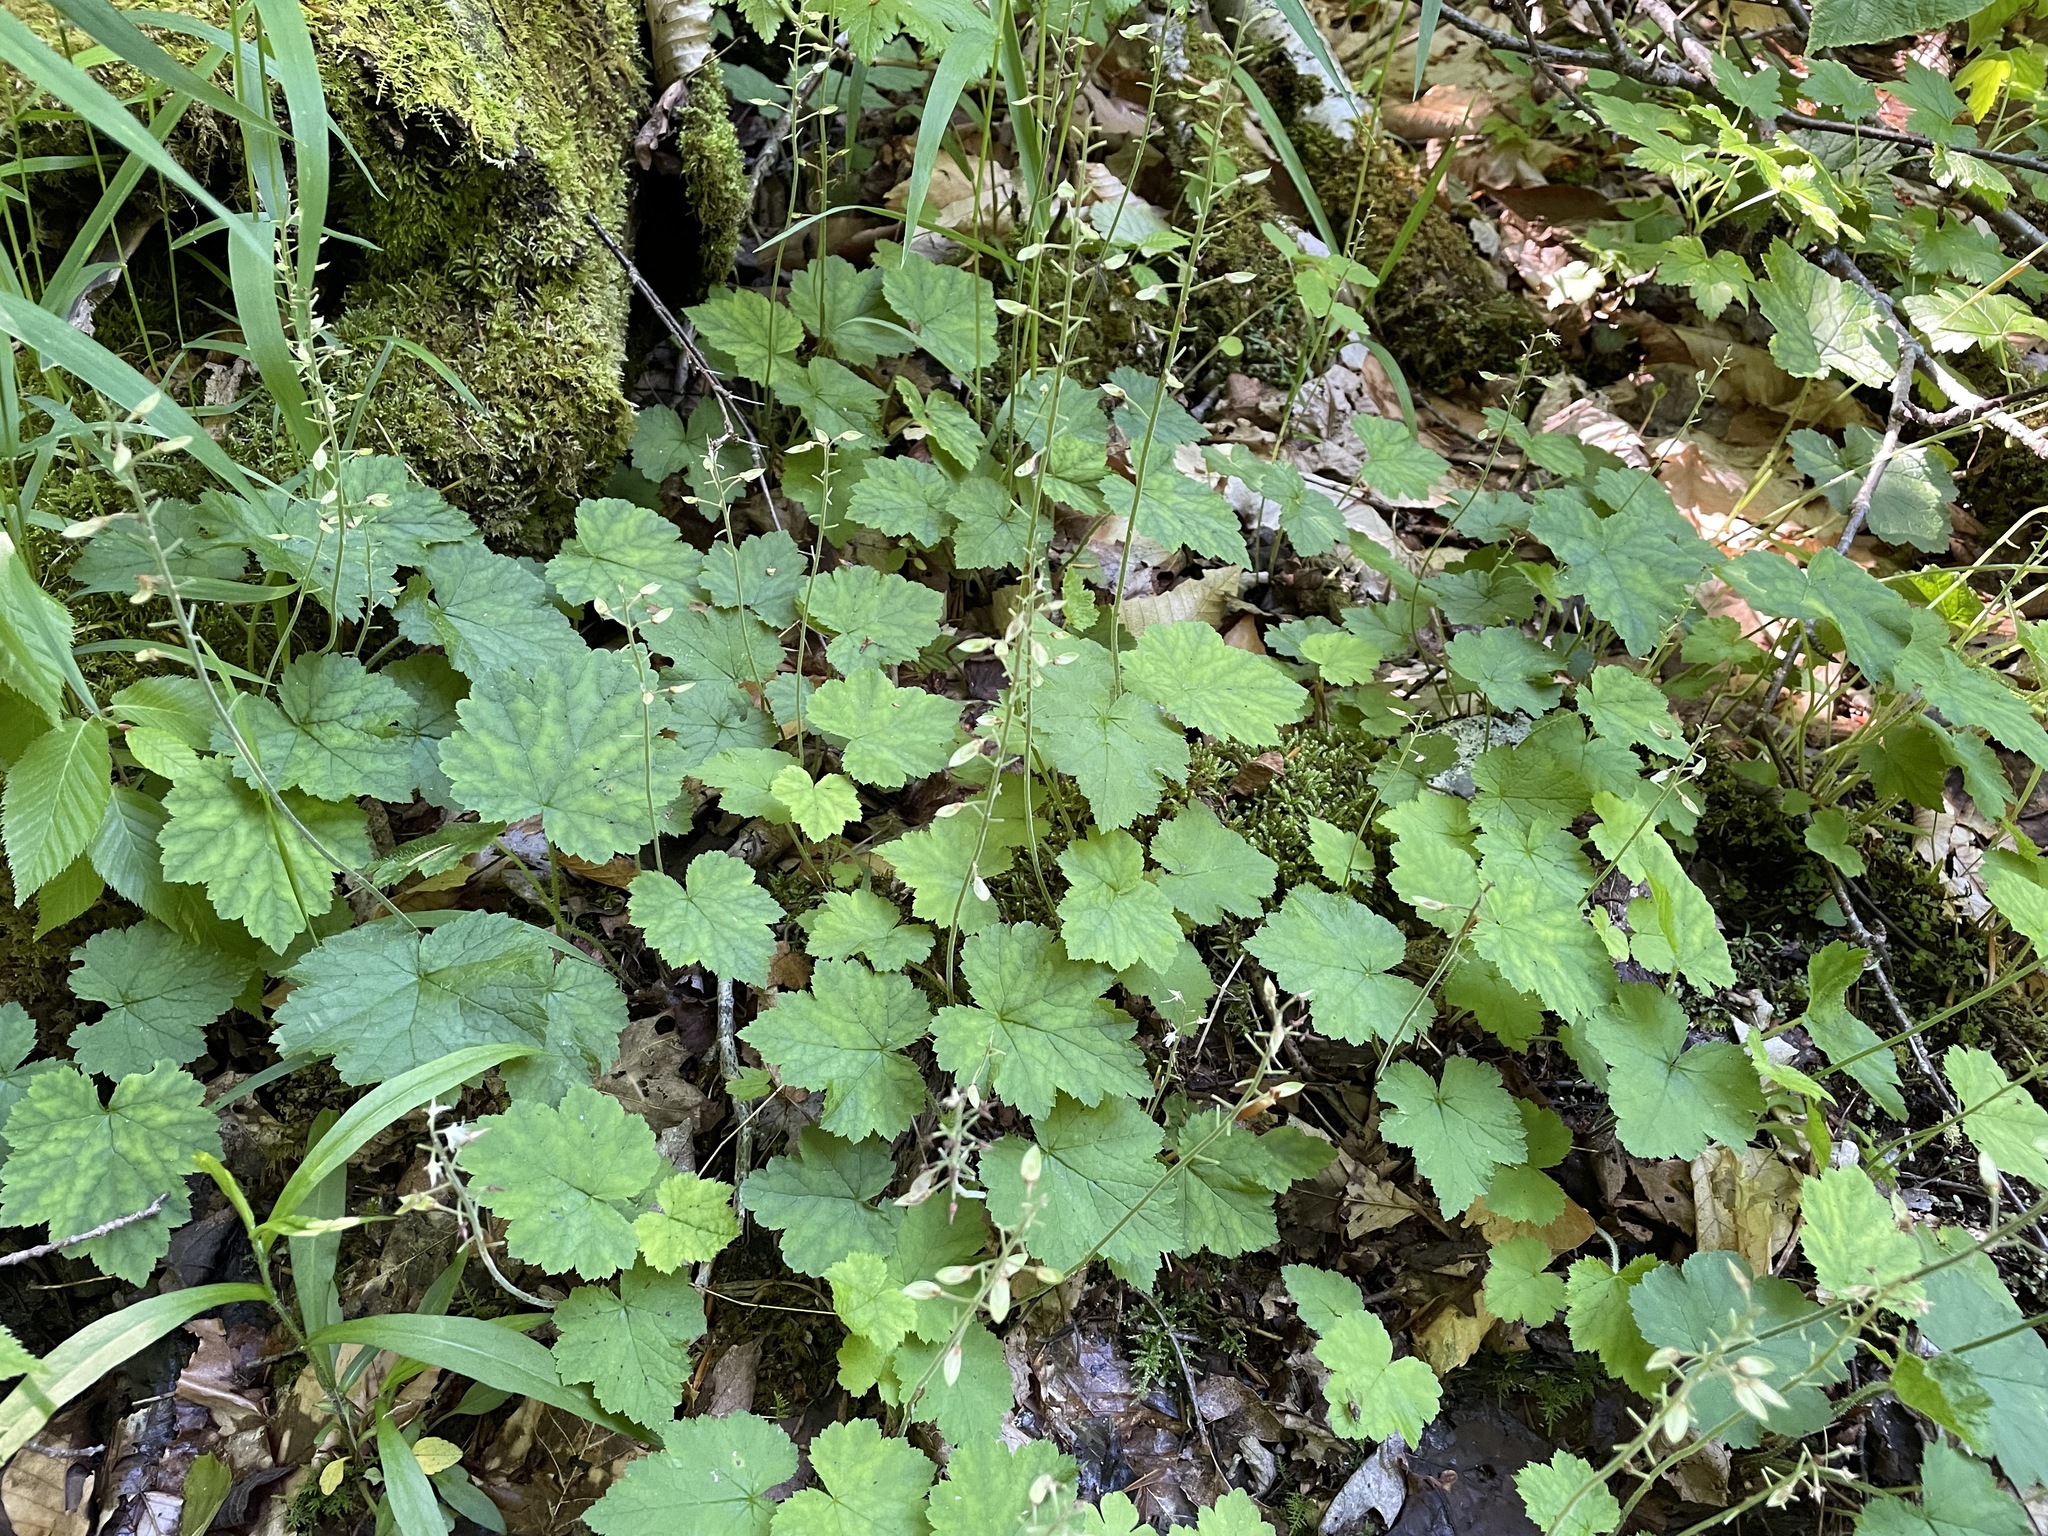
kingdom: Plantae
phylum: Tracheophyta
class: Magnoliopsida
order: Saxifragales
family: Saxifragaceae
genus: Tiarella
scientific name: Tiarella stolonifera
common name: Stoloniferous foamflower
